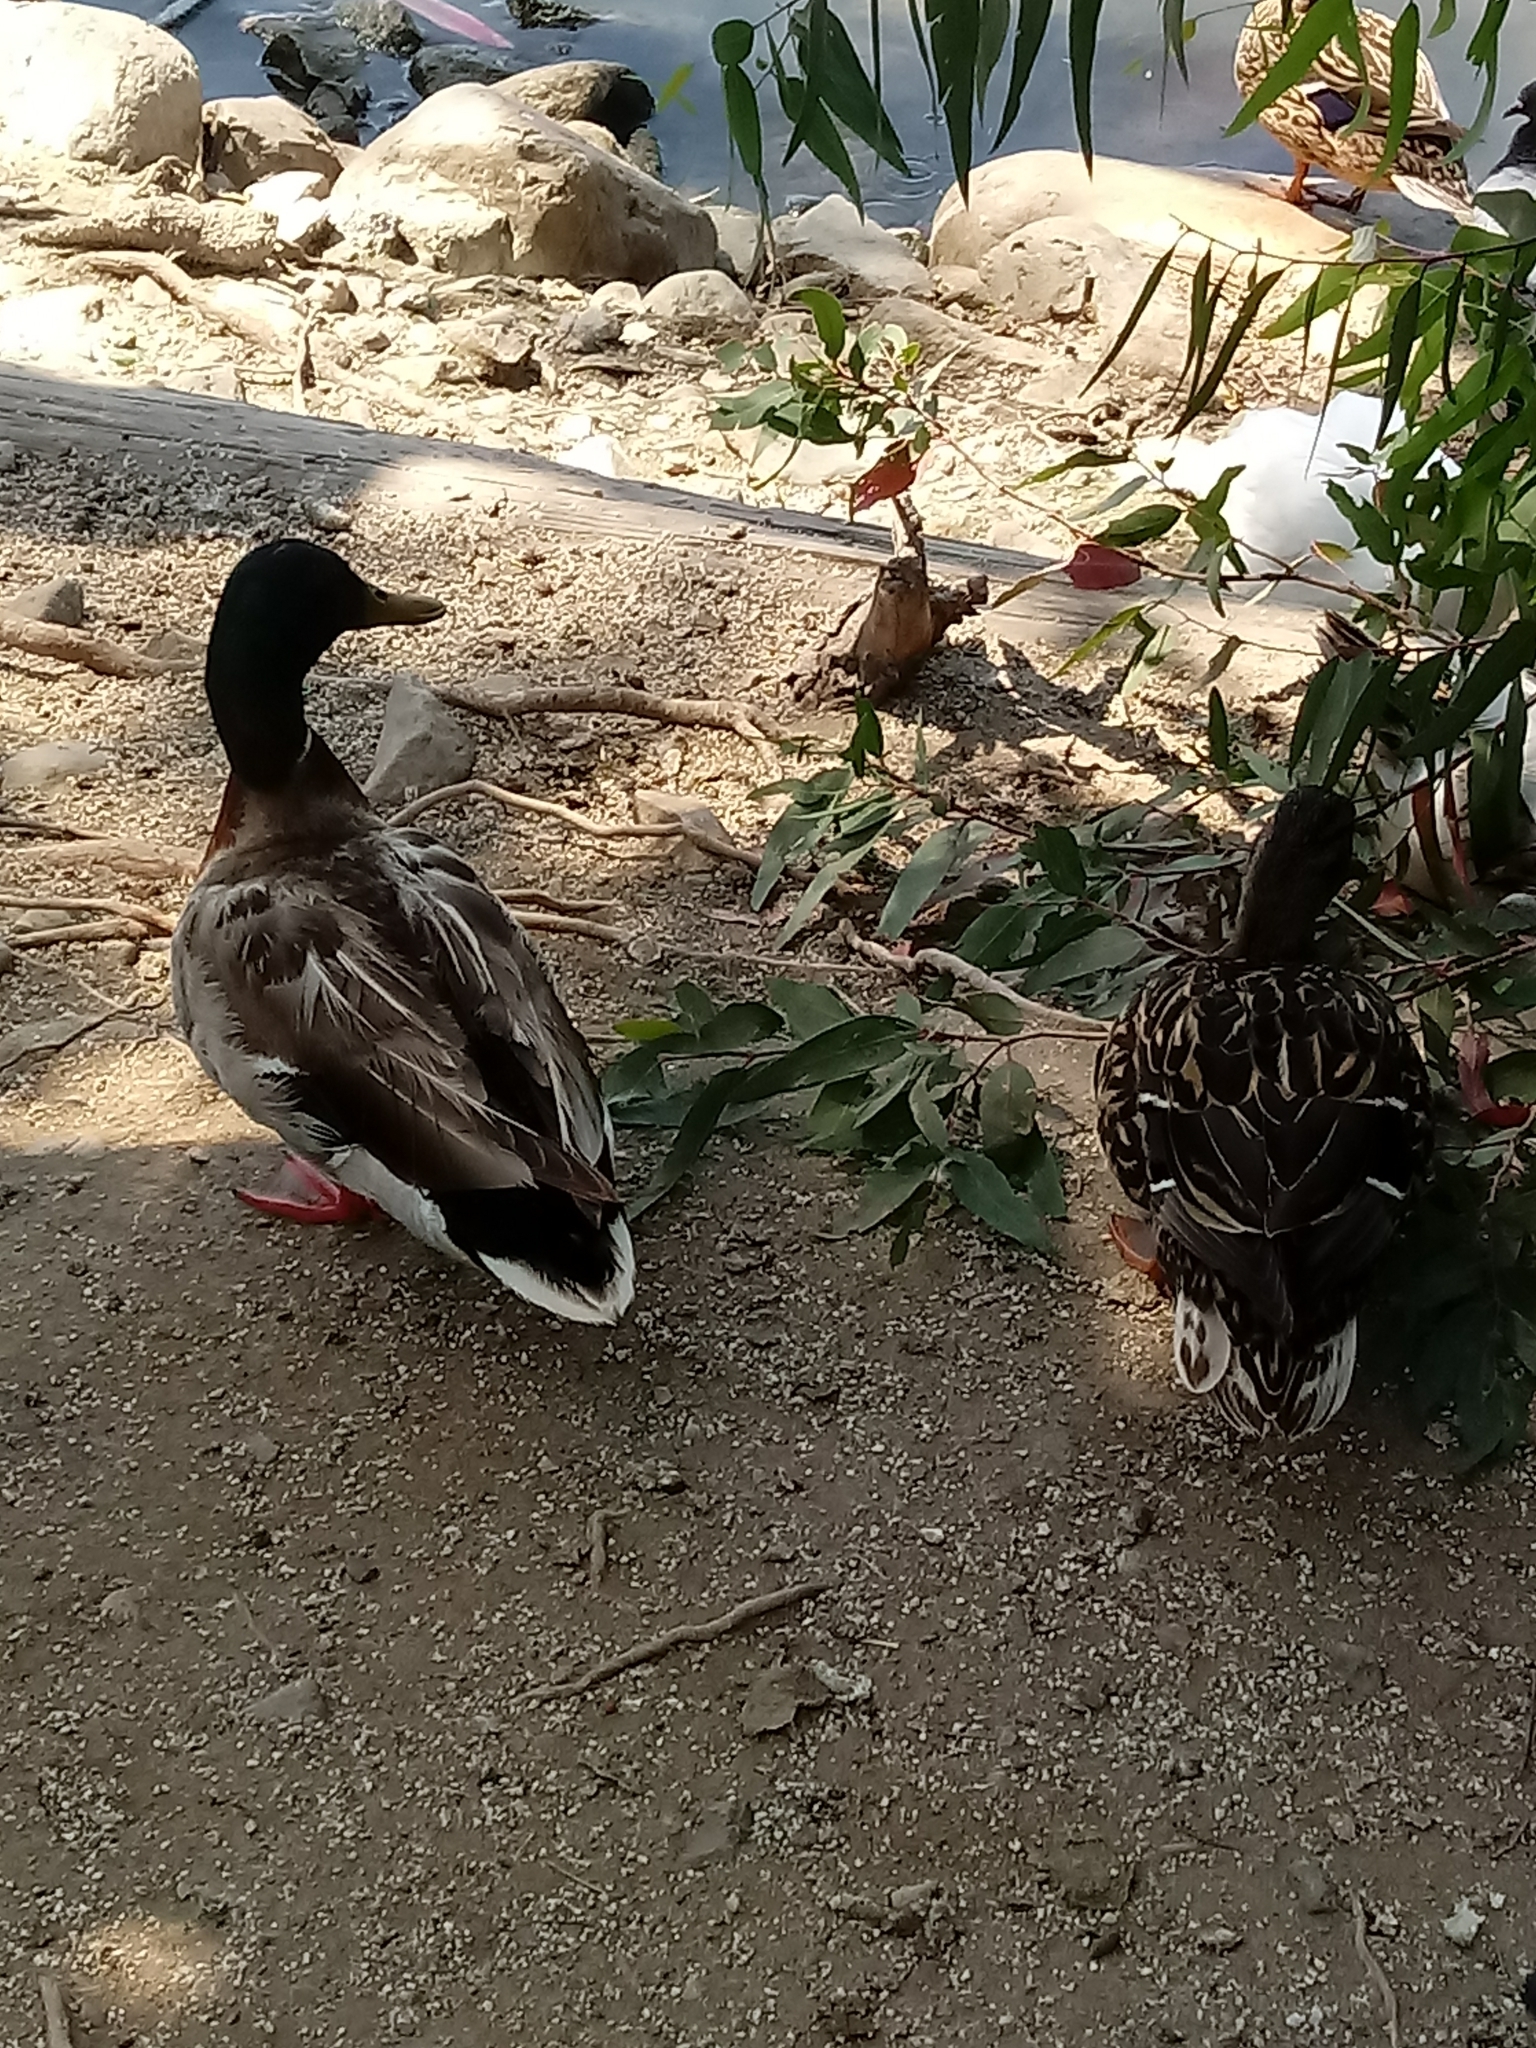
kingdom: Animalia
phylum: Chordata
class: Aves
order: Anseriformes
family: Anatidae
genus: Anas
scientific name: Anas platyrhynchos
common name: Mallard
